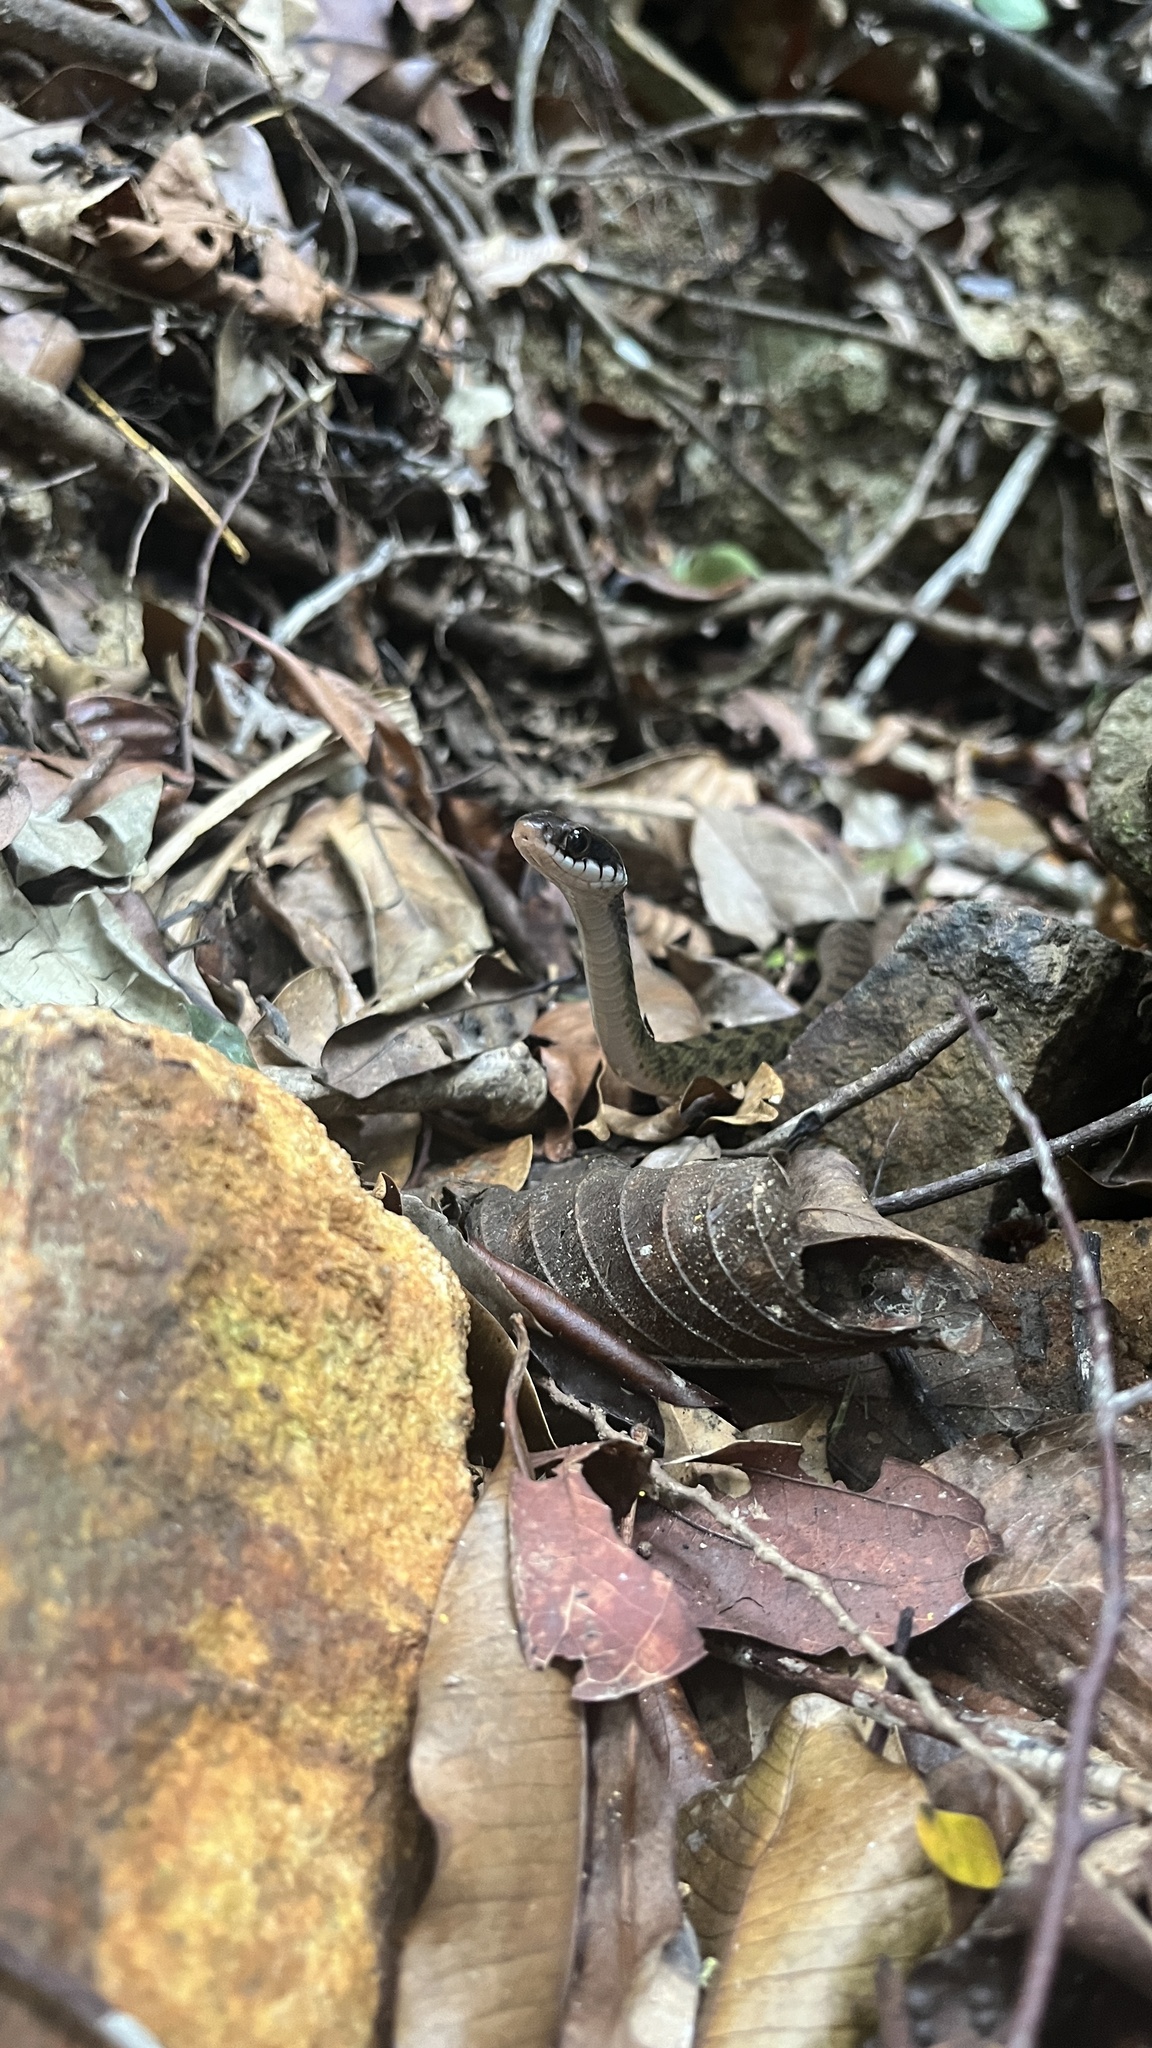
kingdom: Animalia
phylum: Chordata
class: Squamata
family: Colubridae
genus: Rhabdophis
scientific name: Rhabdophis chrysargos
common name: Specklebelly keelback
